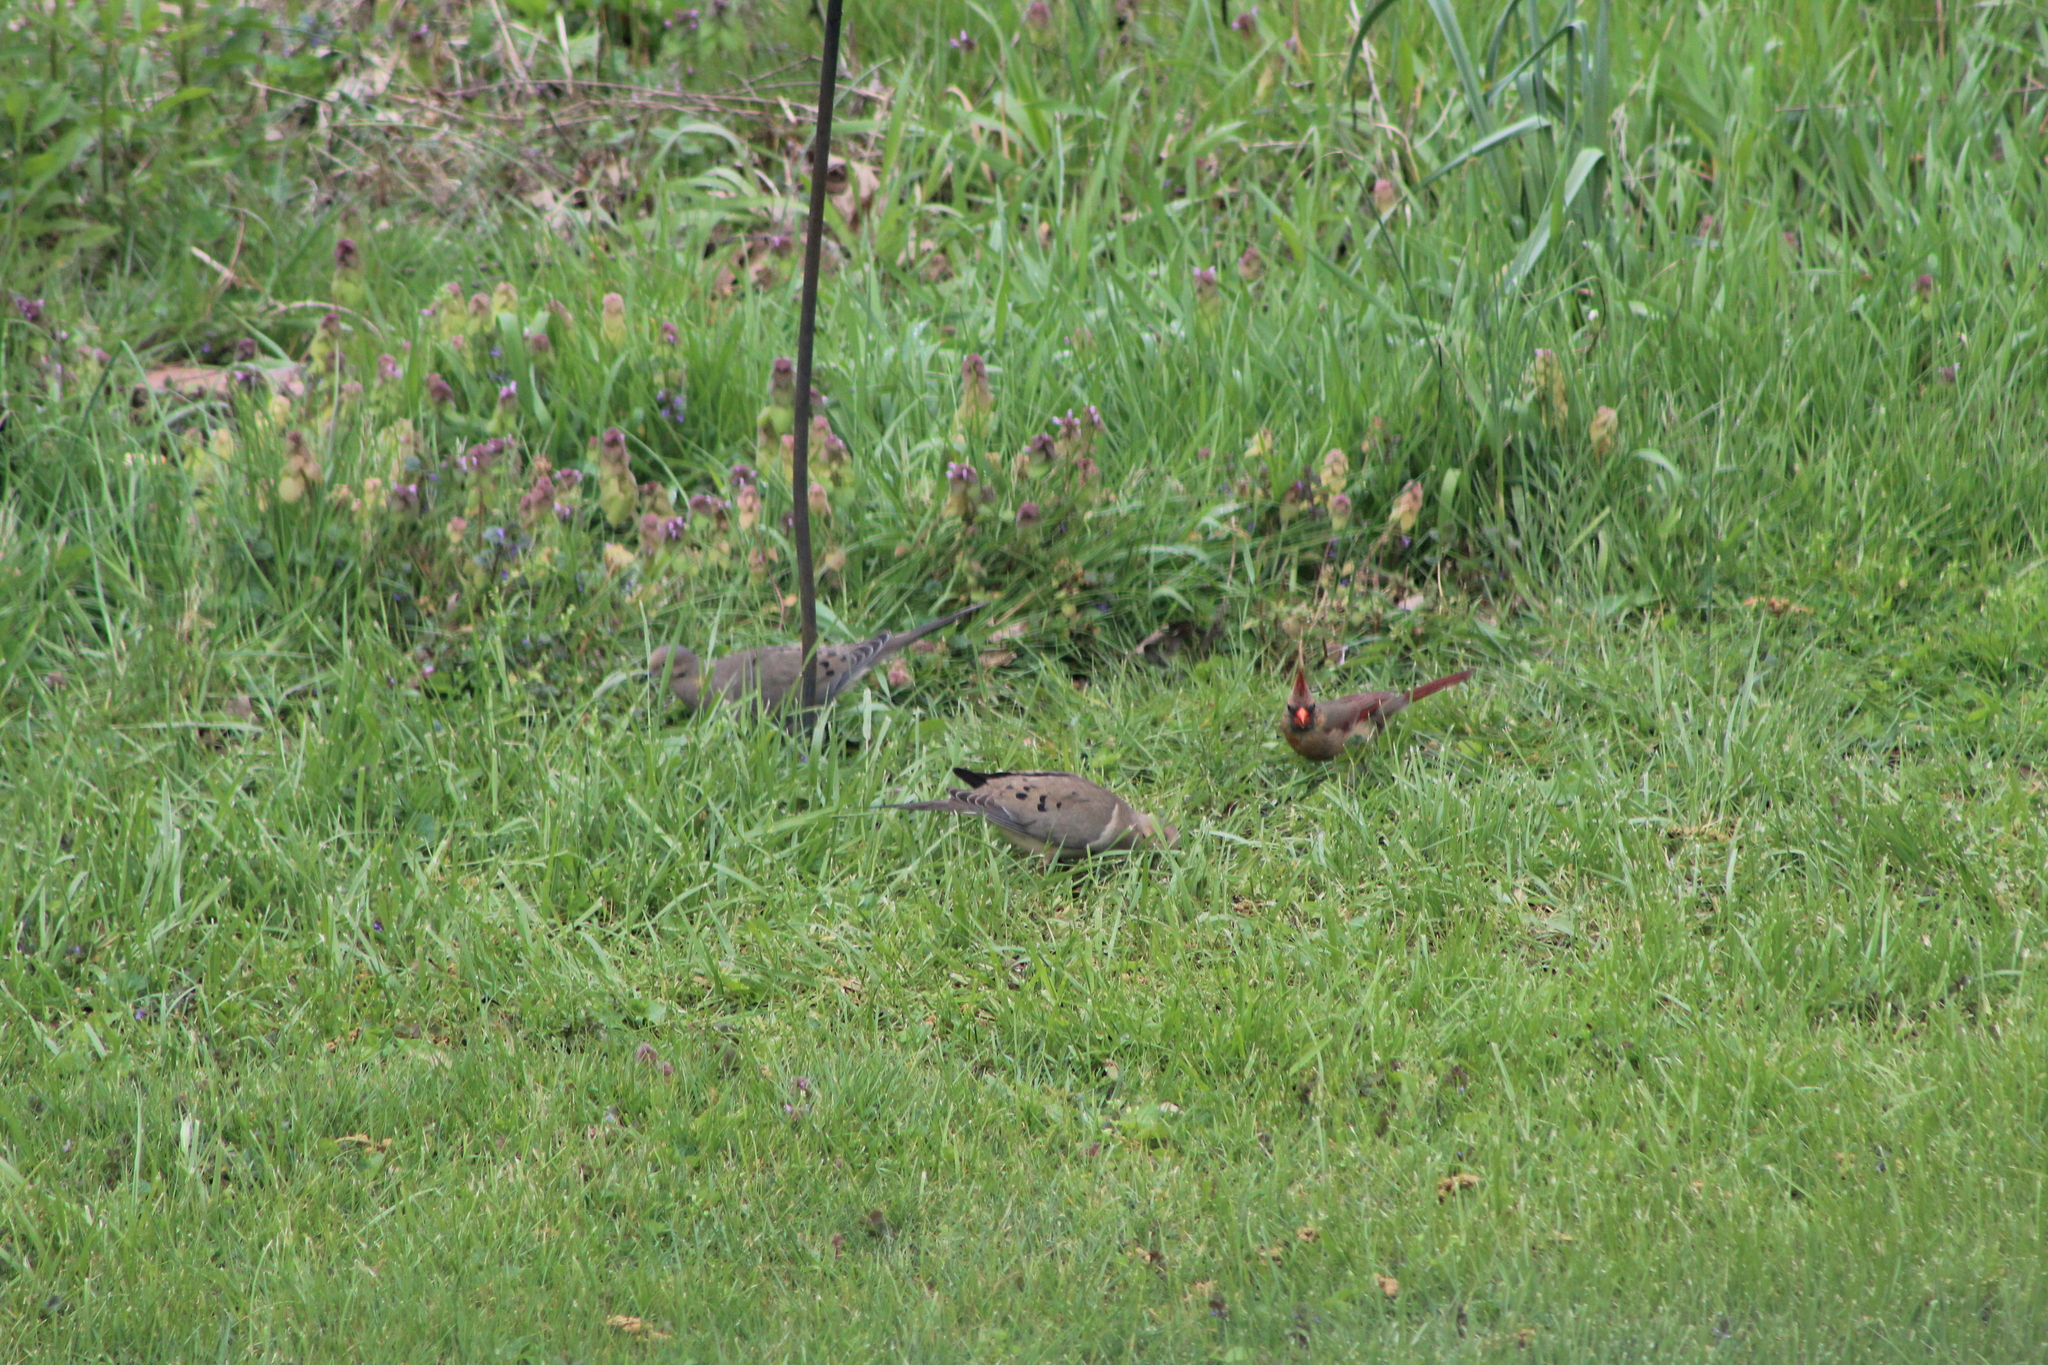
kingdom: Animalia
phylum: Chordata
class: Aves
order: Passeriformes
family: Cardinalidae
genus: Cardinalis
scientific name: Cardinalis cardinalis
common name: Northern cardinal
